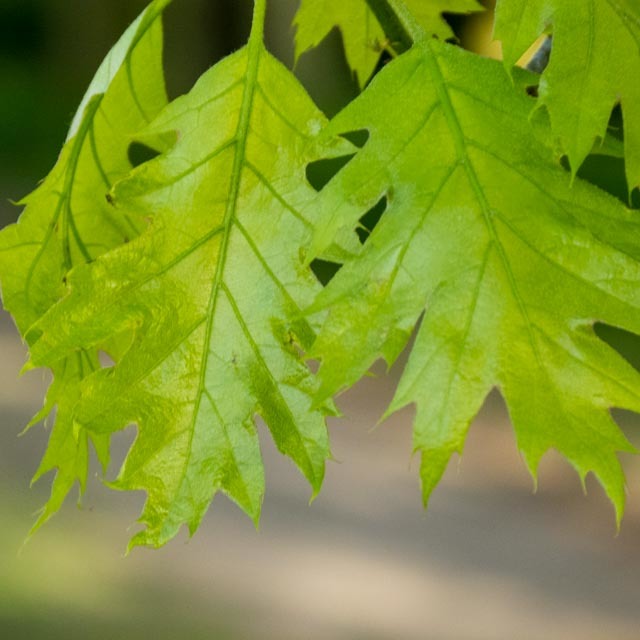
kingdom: Plantae
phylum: Tracheophyta
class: Magnoliopsida
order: Fagales
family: Fagaceae
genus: Quercus
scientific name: Quercus rubra
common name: Red oak
